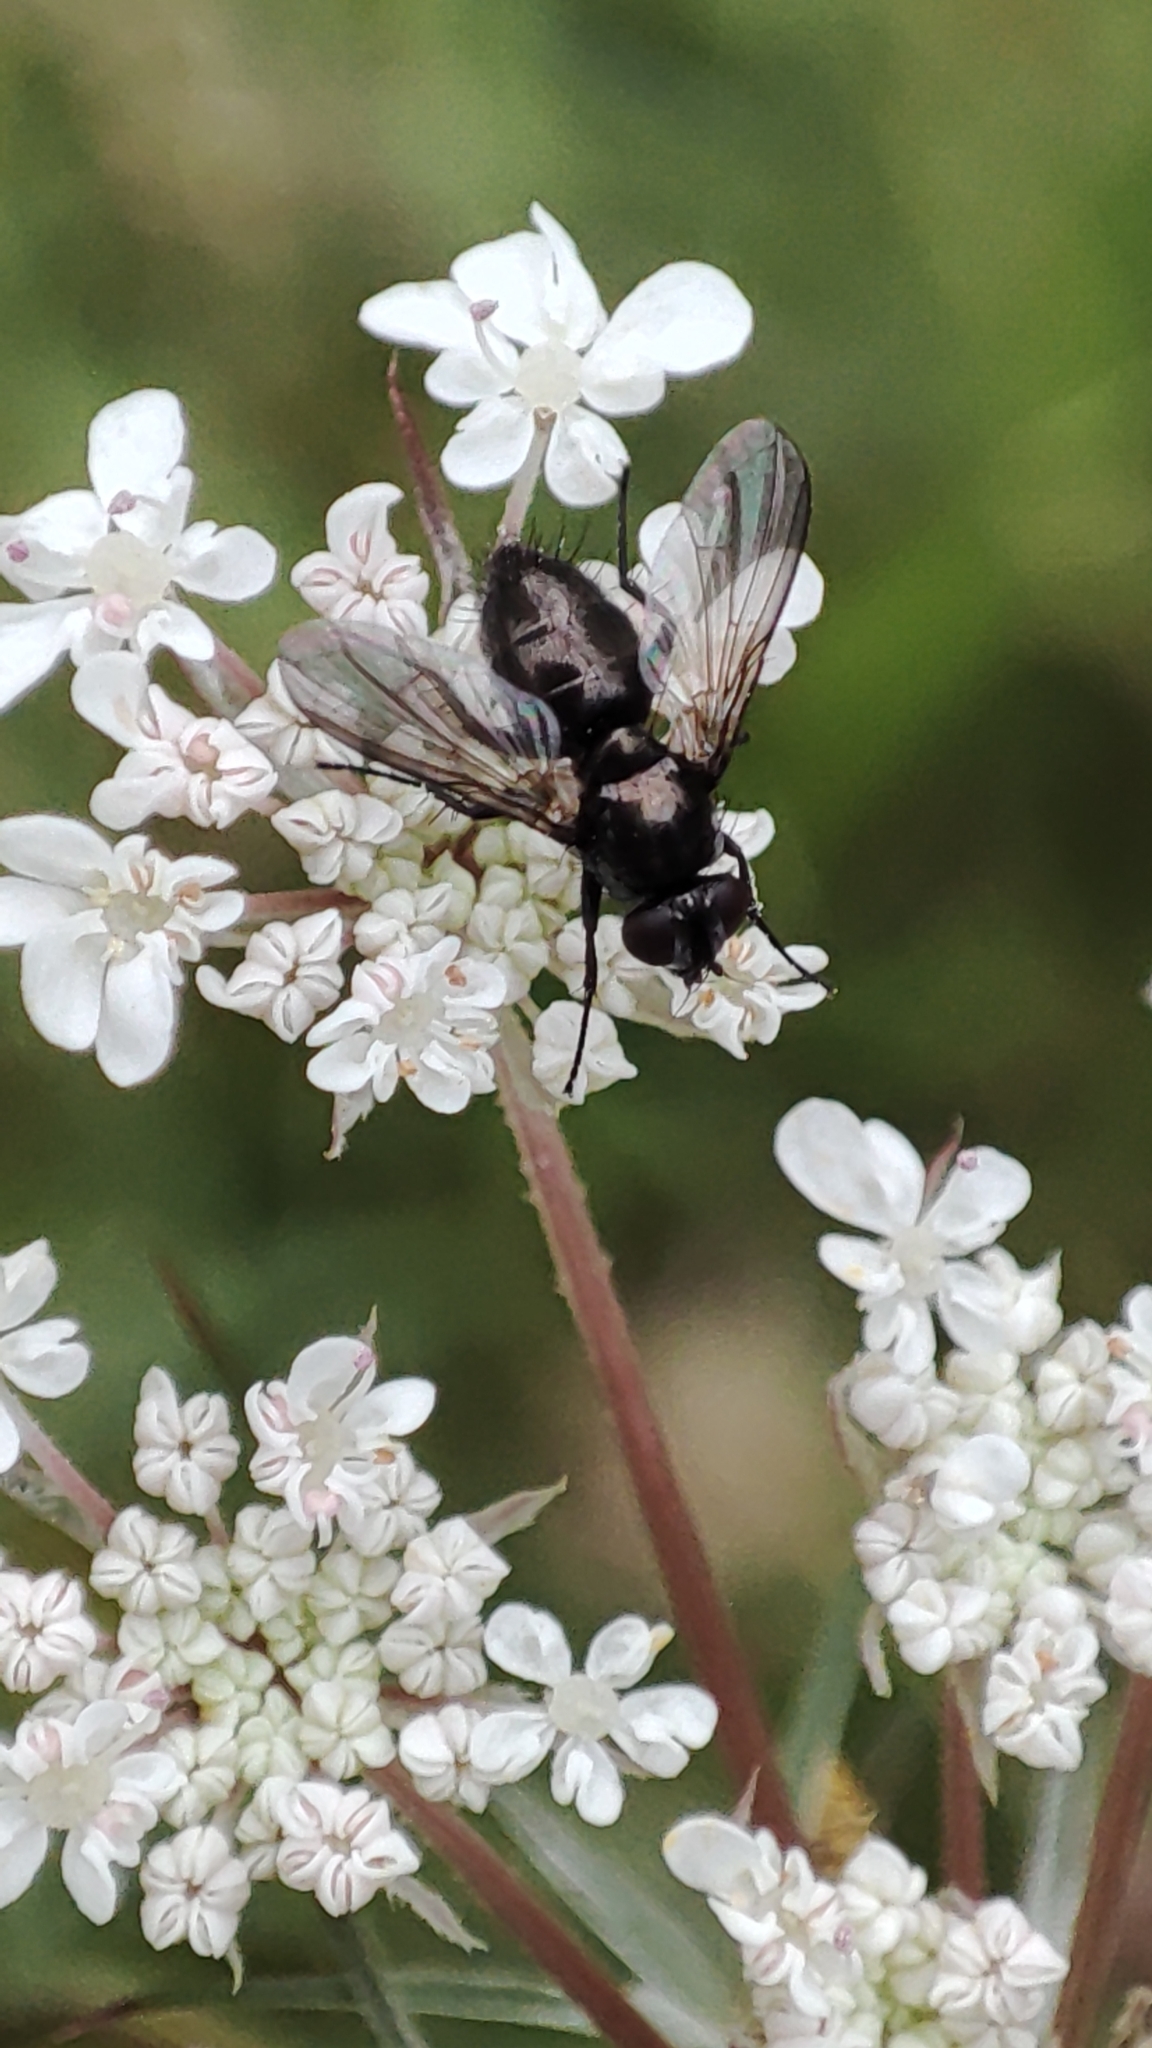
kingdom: Animalia
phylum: Arthropoda
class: Insecta
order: Diptera
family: Calliphoridae
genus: Rhinophora
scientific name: Rhinophora lepida
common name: Pouting woodlouse-fly
